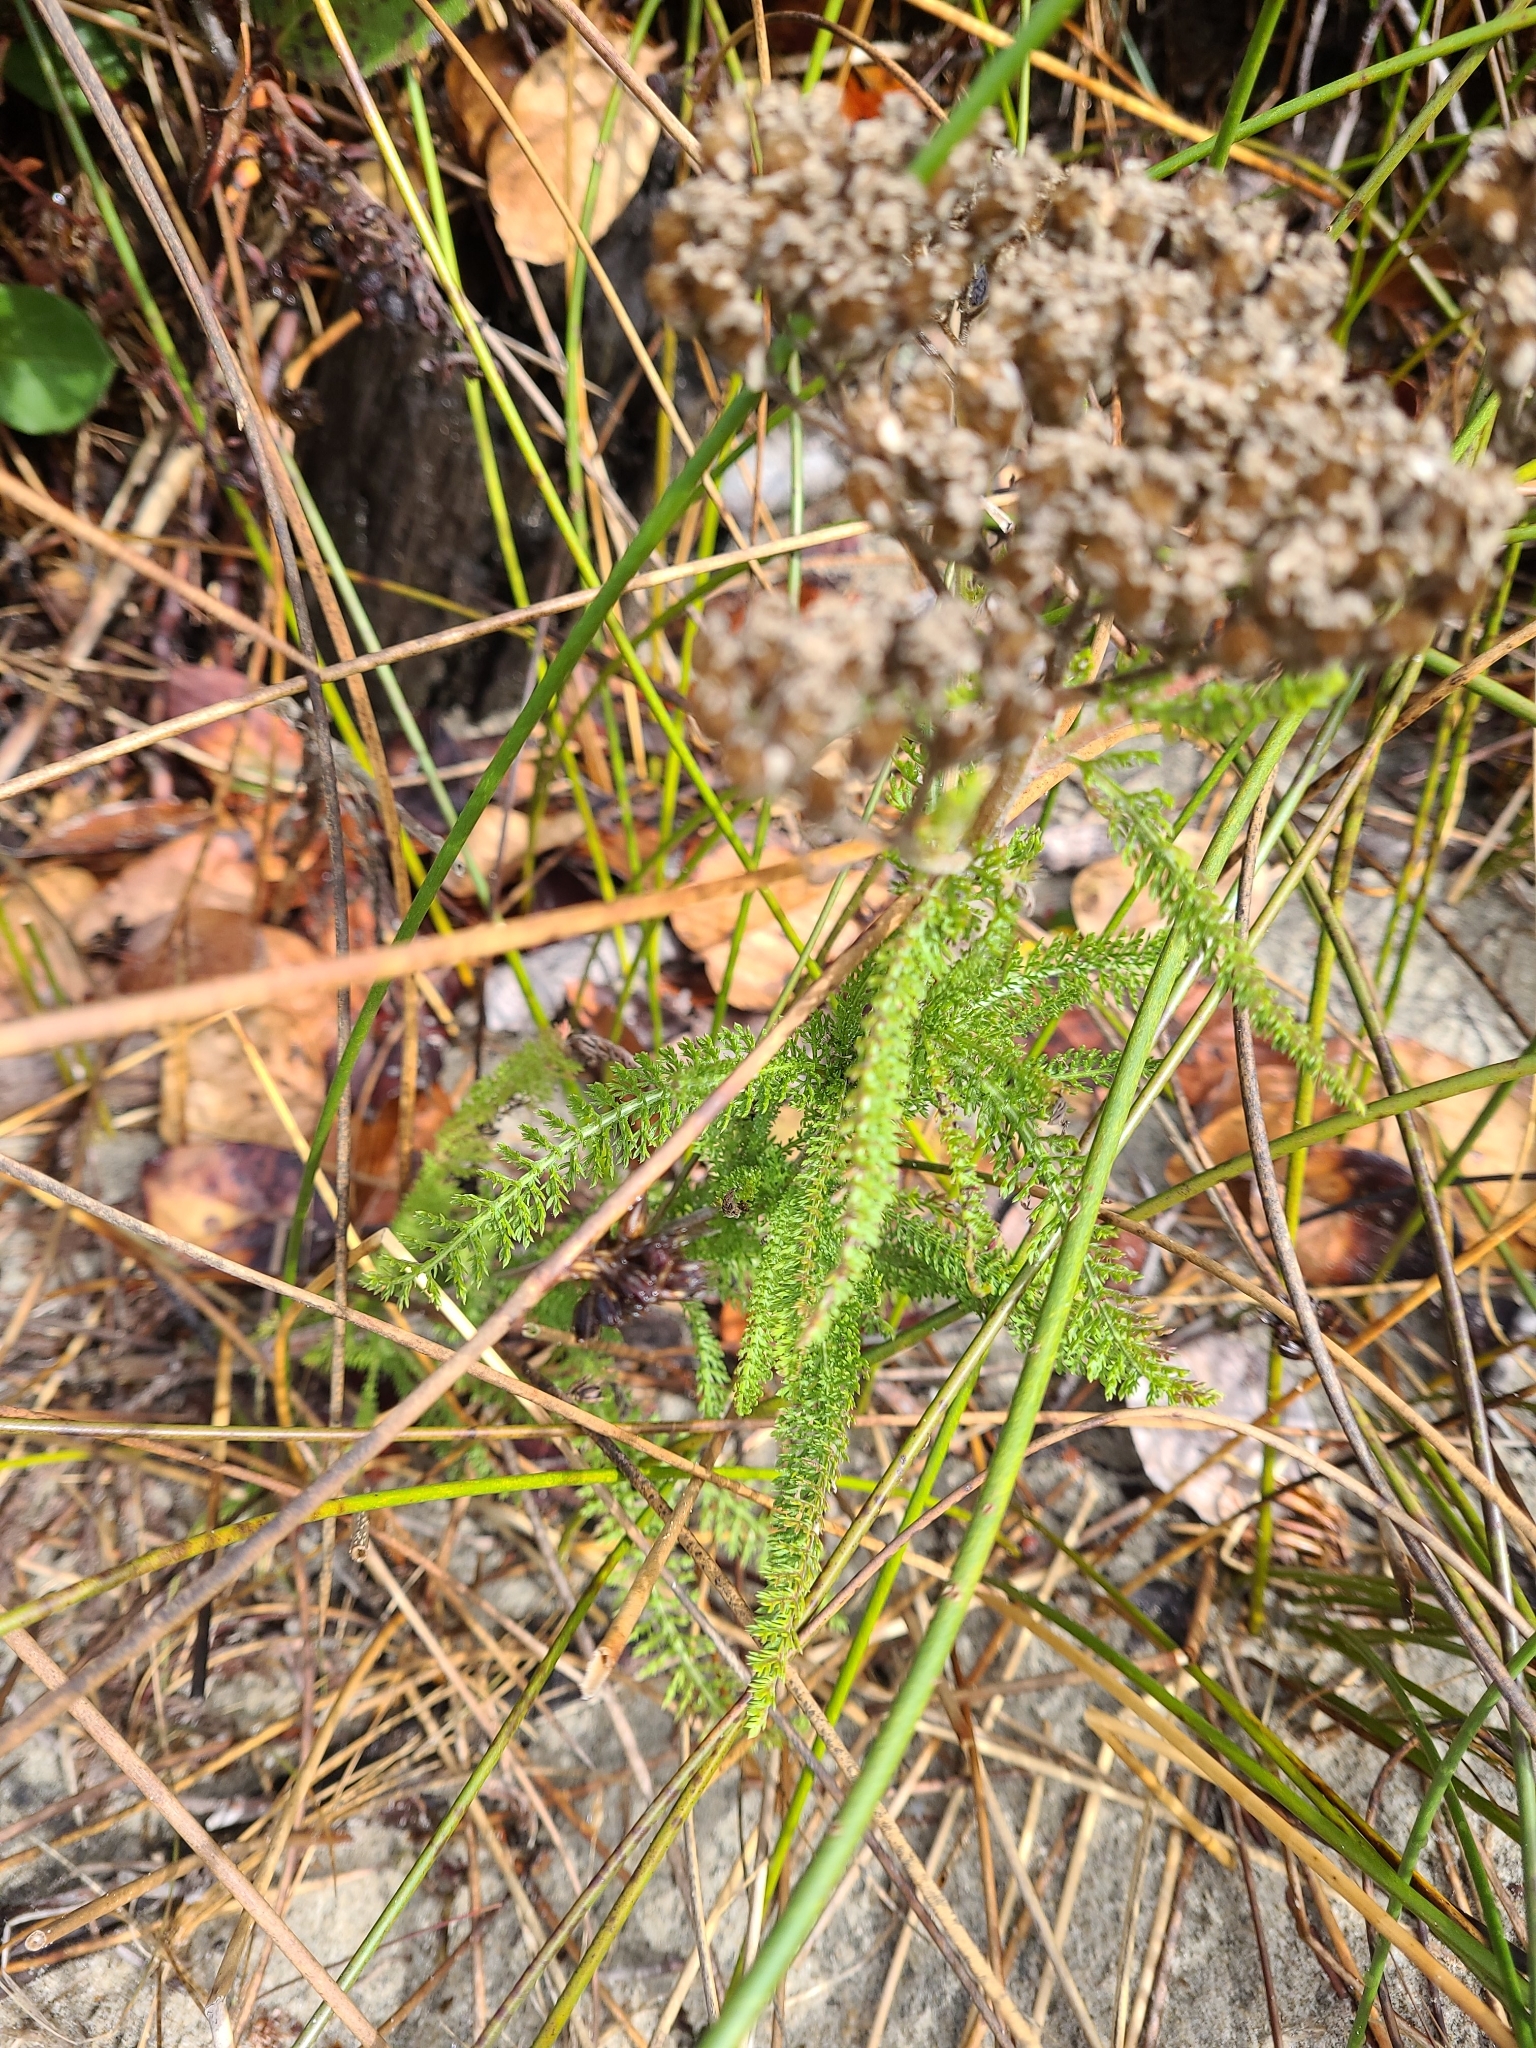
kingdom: Plantae
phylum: Tracheophyta
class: Magnoliopsida
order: Asterales
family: Asteraceae
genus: Achillea
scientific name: Achillea millefolium
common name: Yarrow
